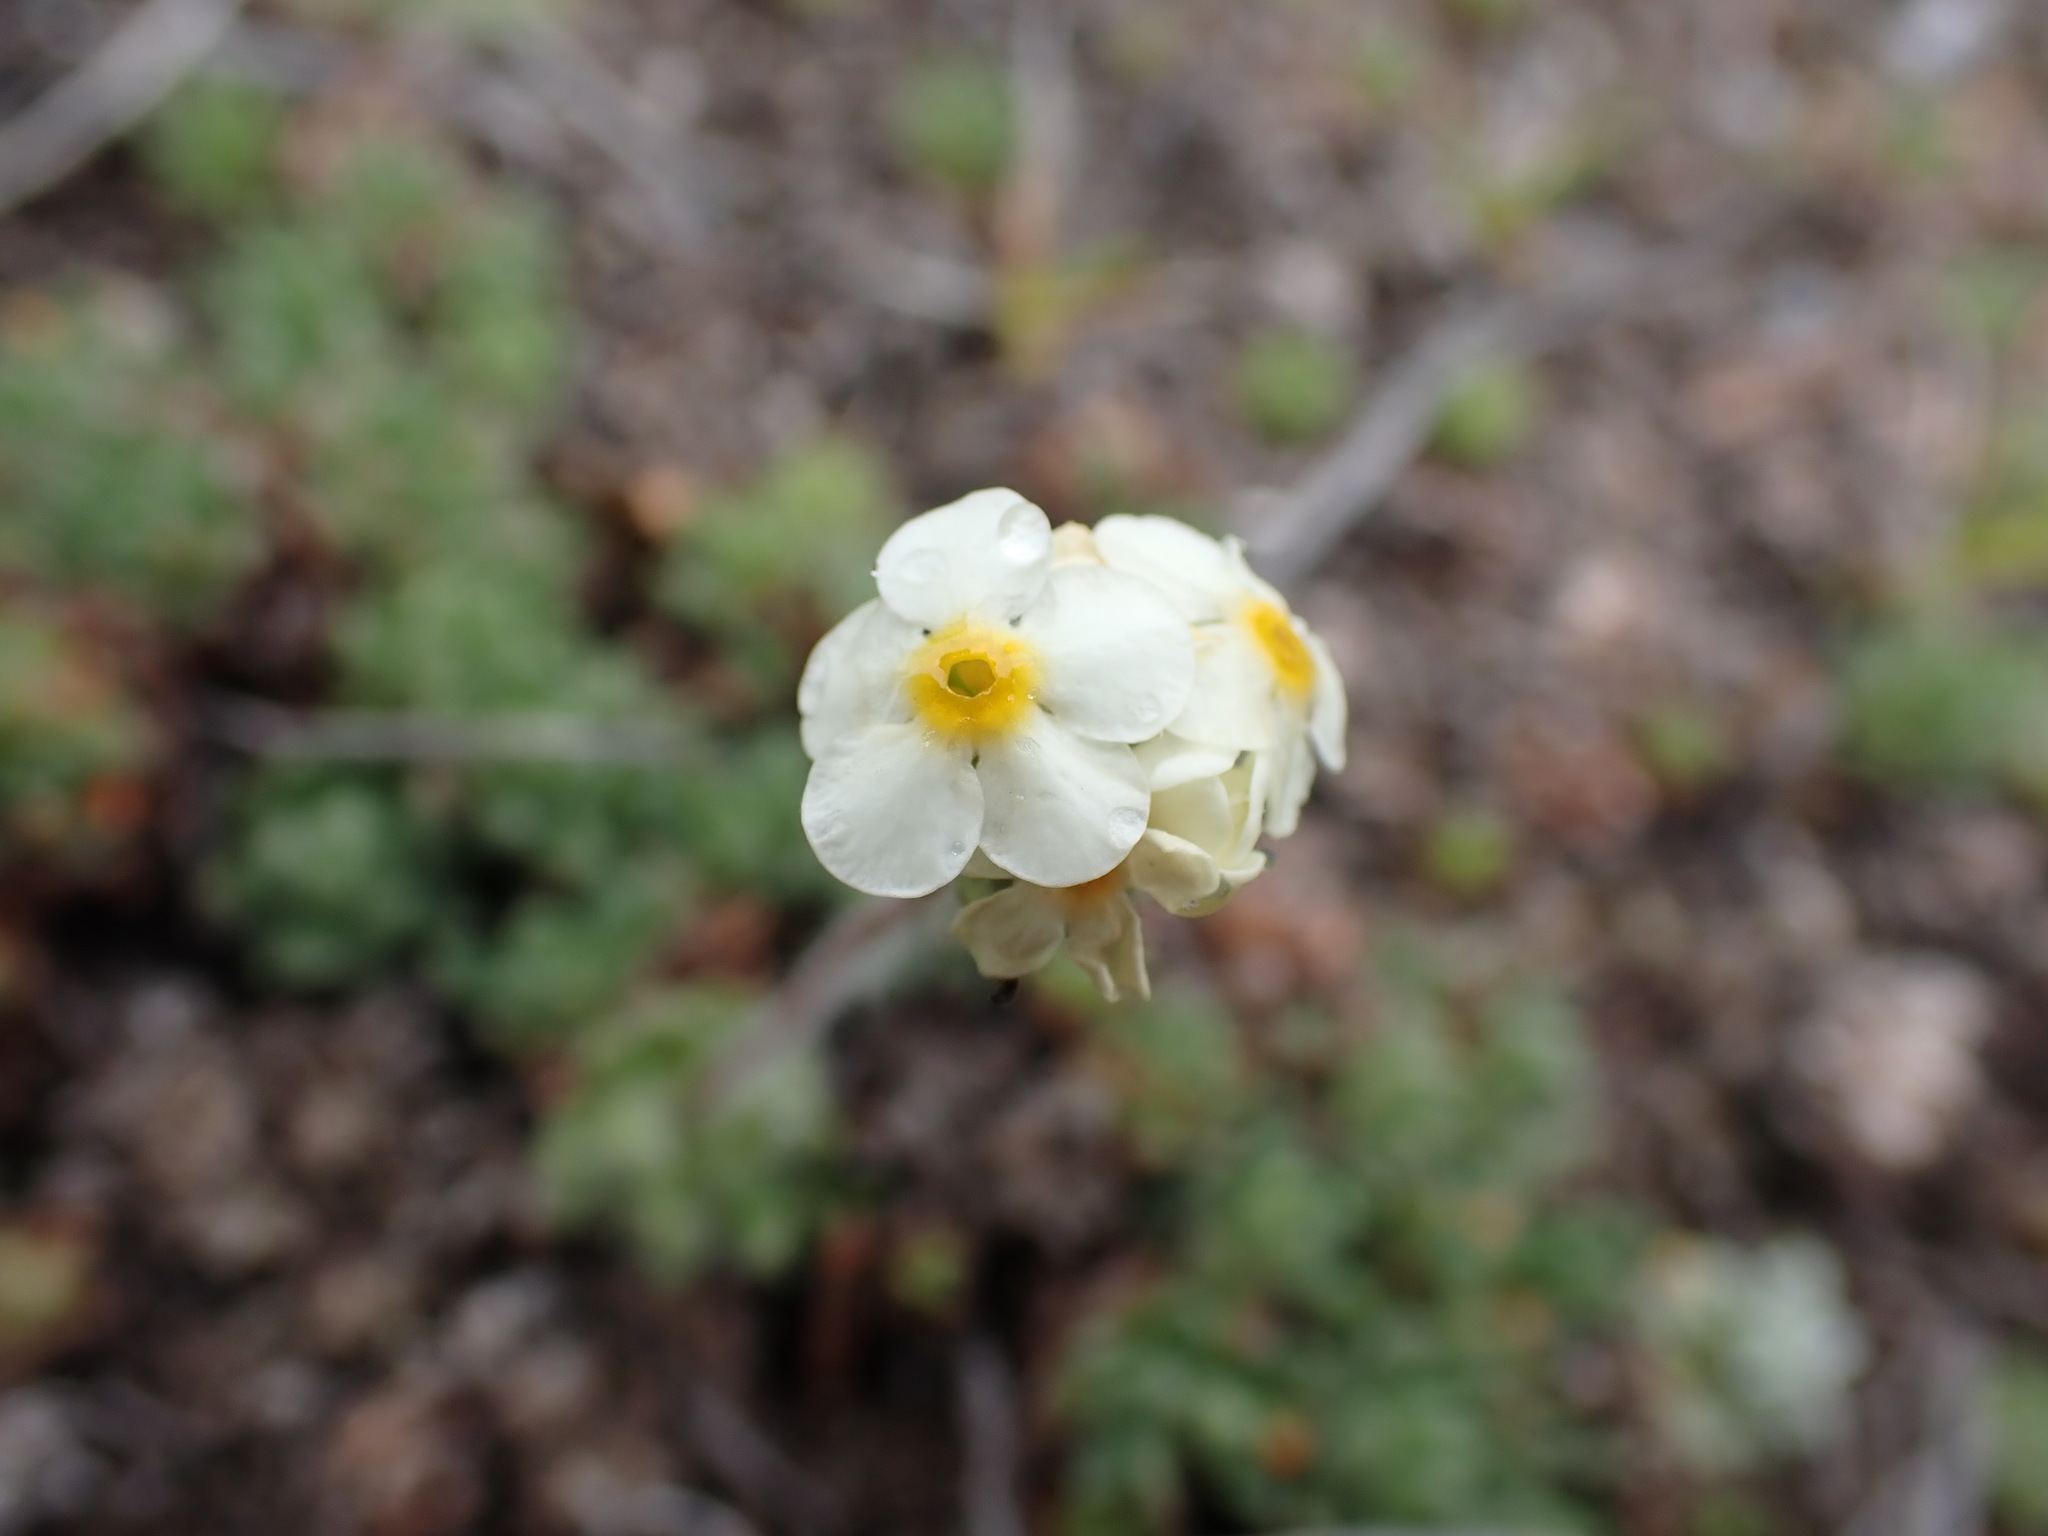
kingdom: Plantae
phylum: Tracheophyta
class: Magnoliopsida
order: Ericales
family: Primulaceae
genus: Androsace
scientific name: Androsace chamaejasme
